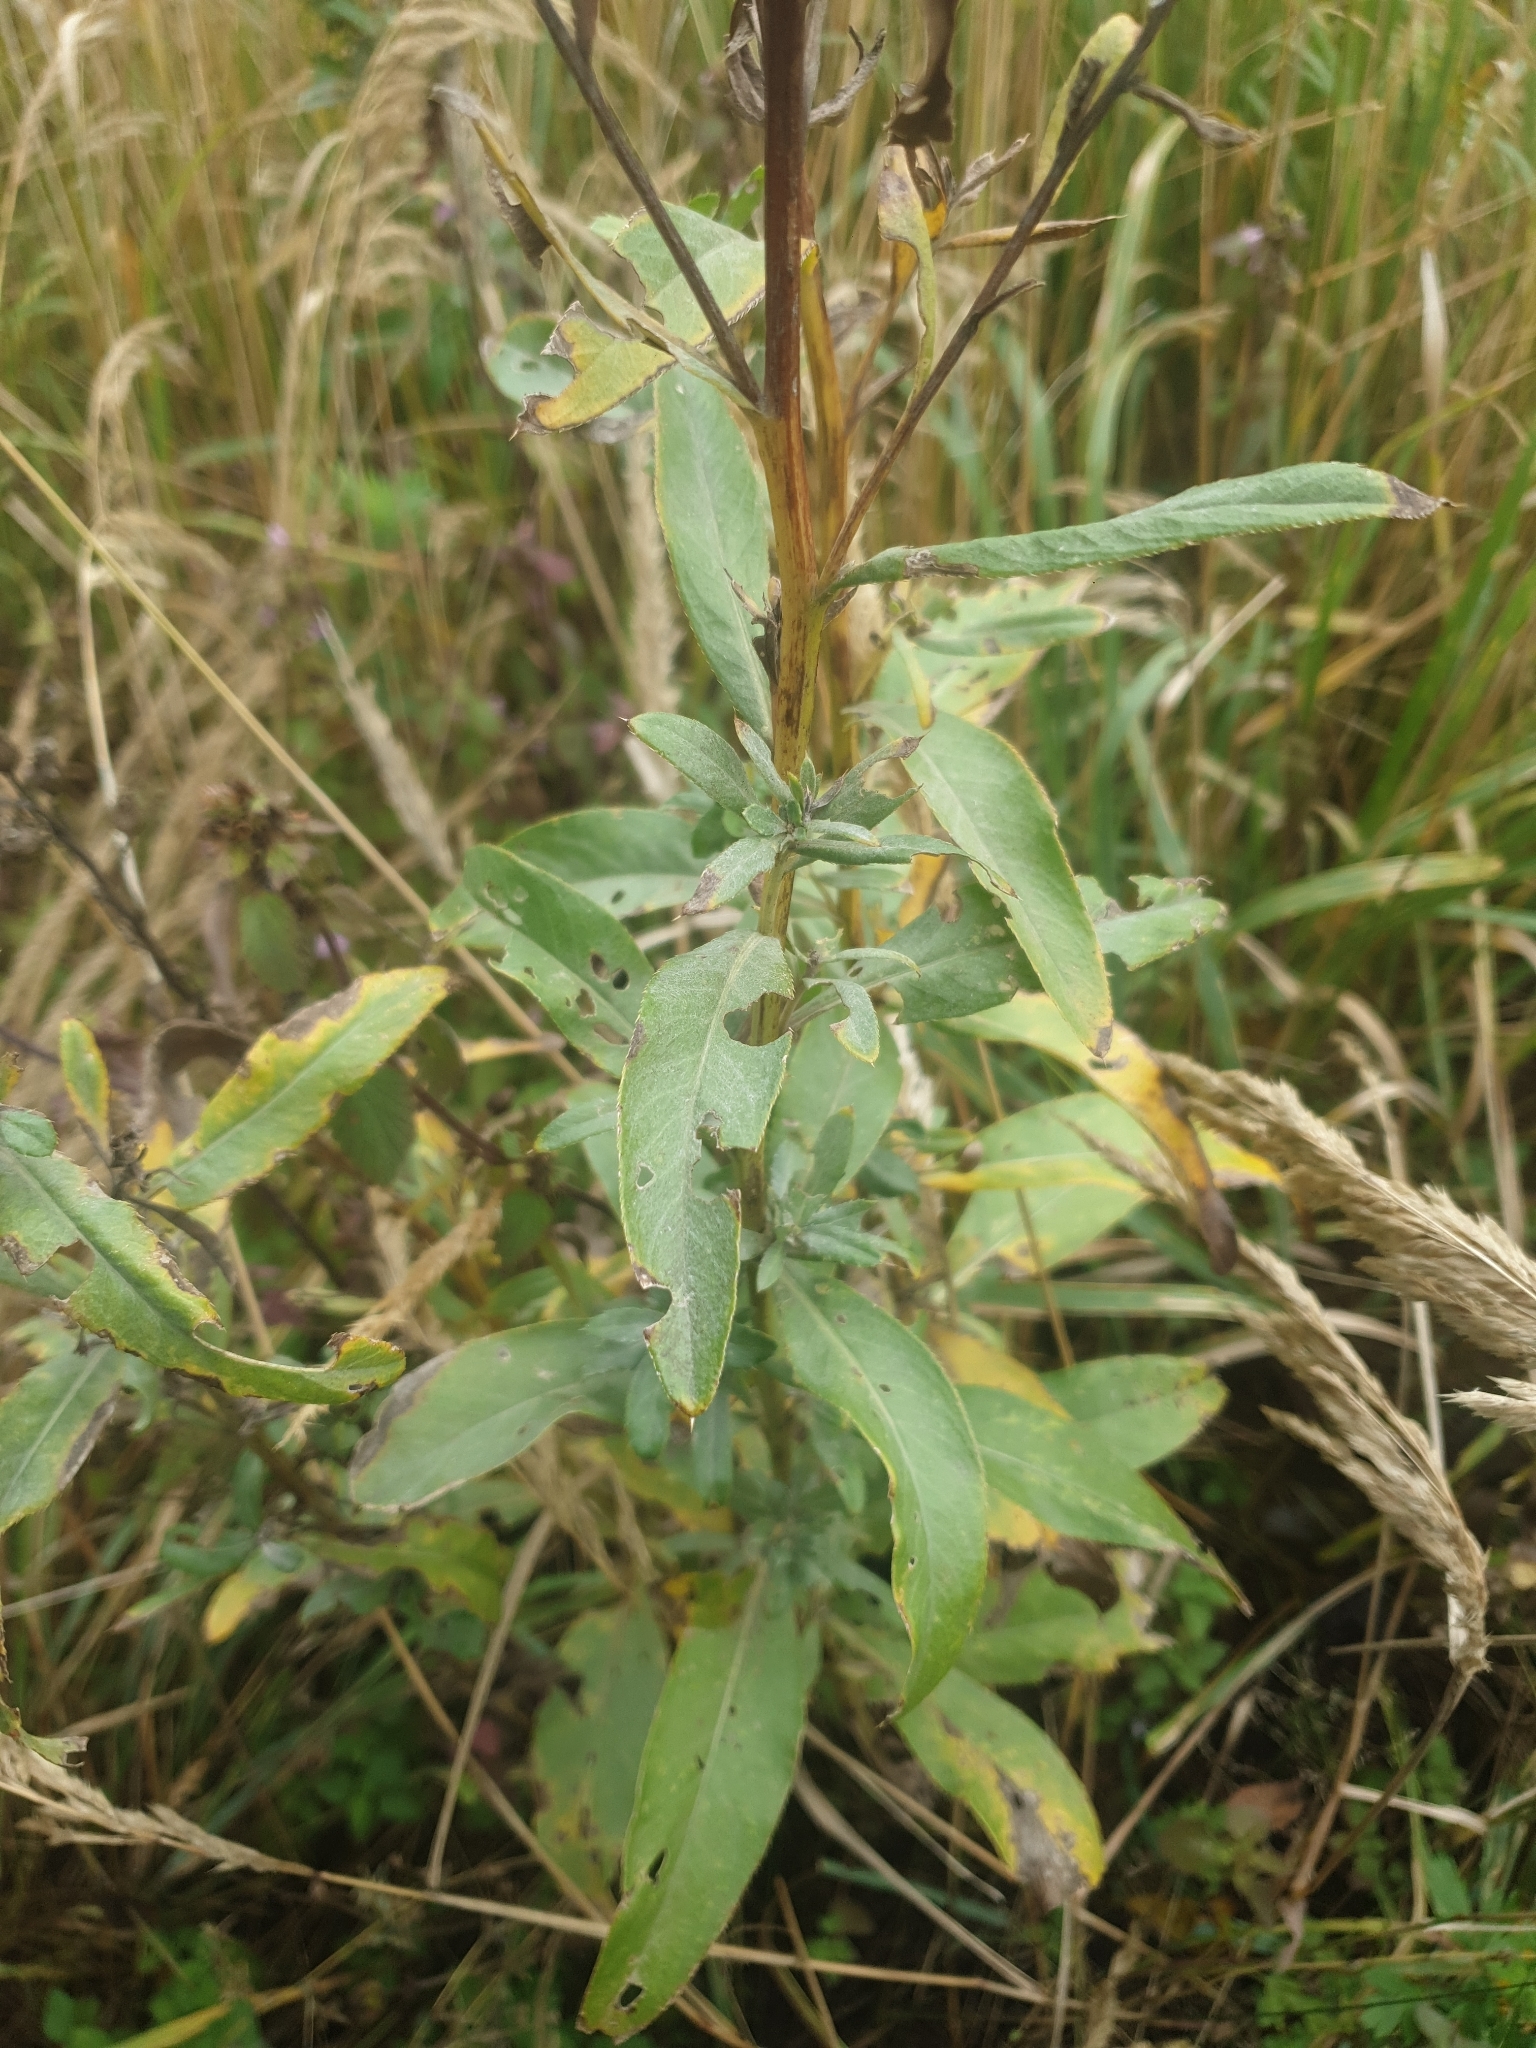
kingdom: Plantae
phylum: Tracheophyta
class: Magnoliopsida
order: Asterales
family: Asteraceae
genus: Cirsium
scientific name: Cirsium arvense
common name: Creeping thistle
